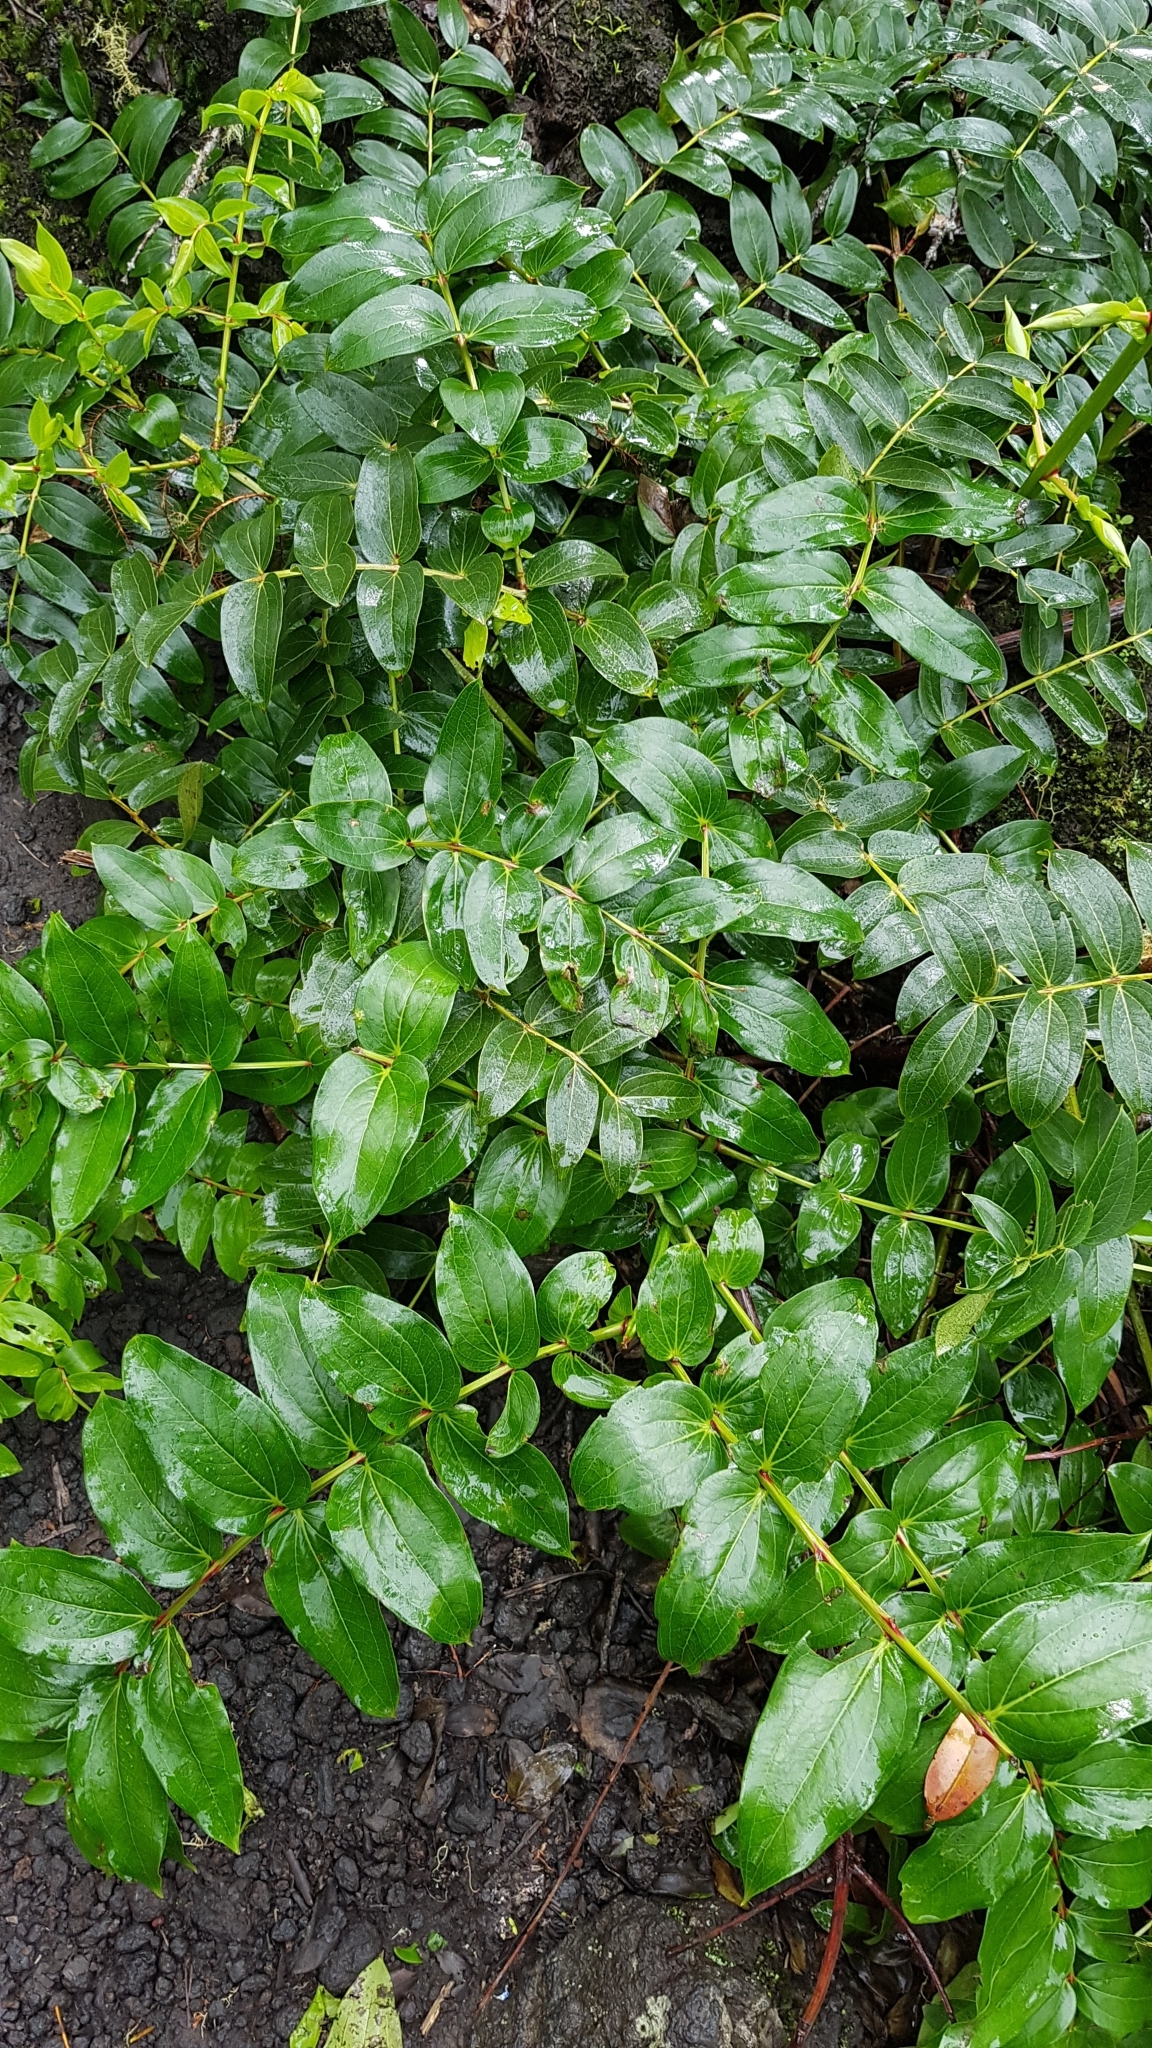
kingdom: Plantae
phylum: Tracheophyta
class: Magnoliopsida
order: Cucurbitales
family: Coriariaceae
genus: Coriaria
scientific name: Coriaria arborea
